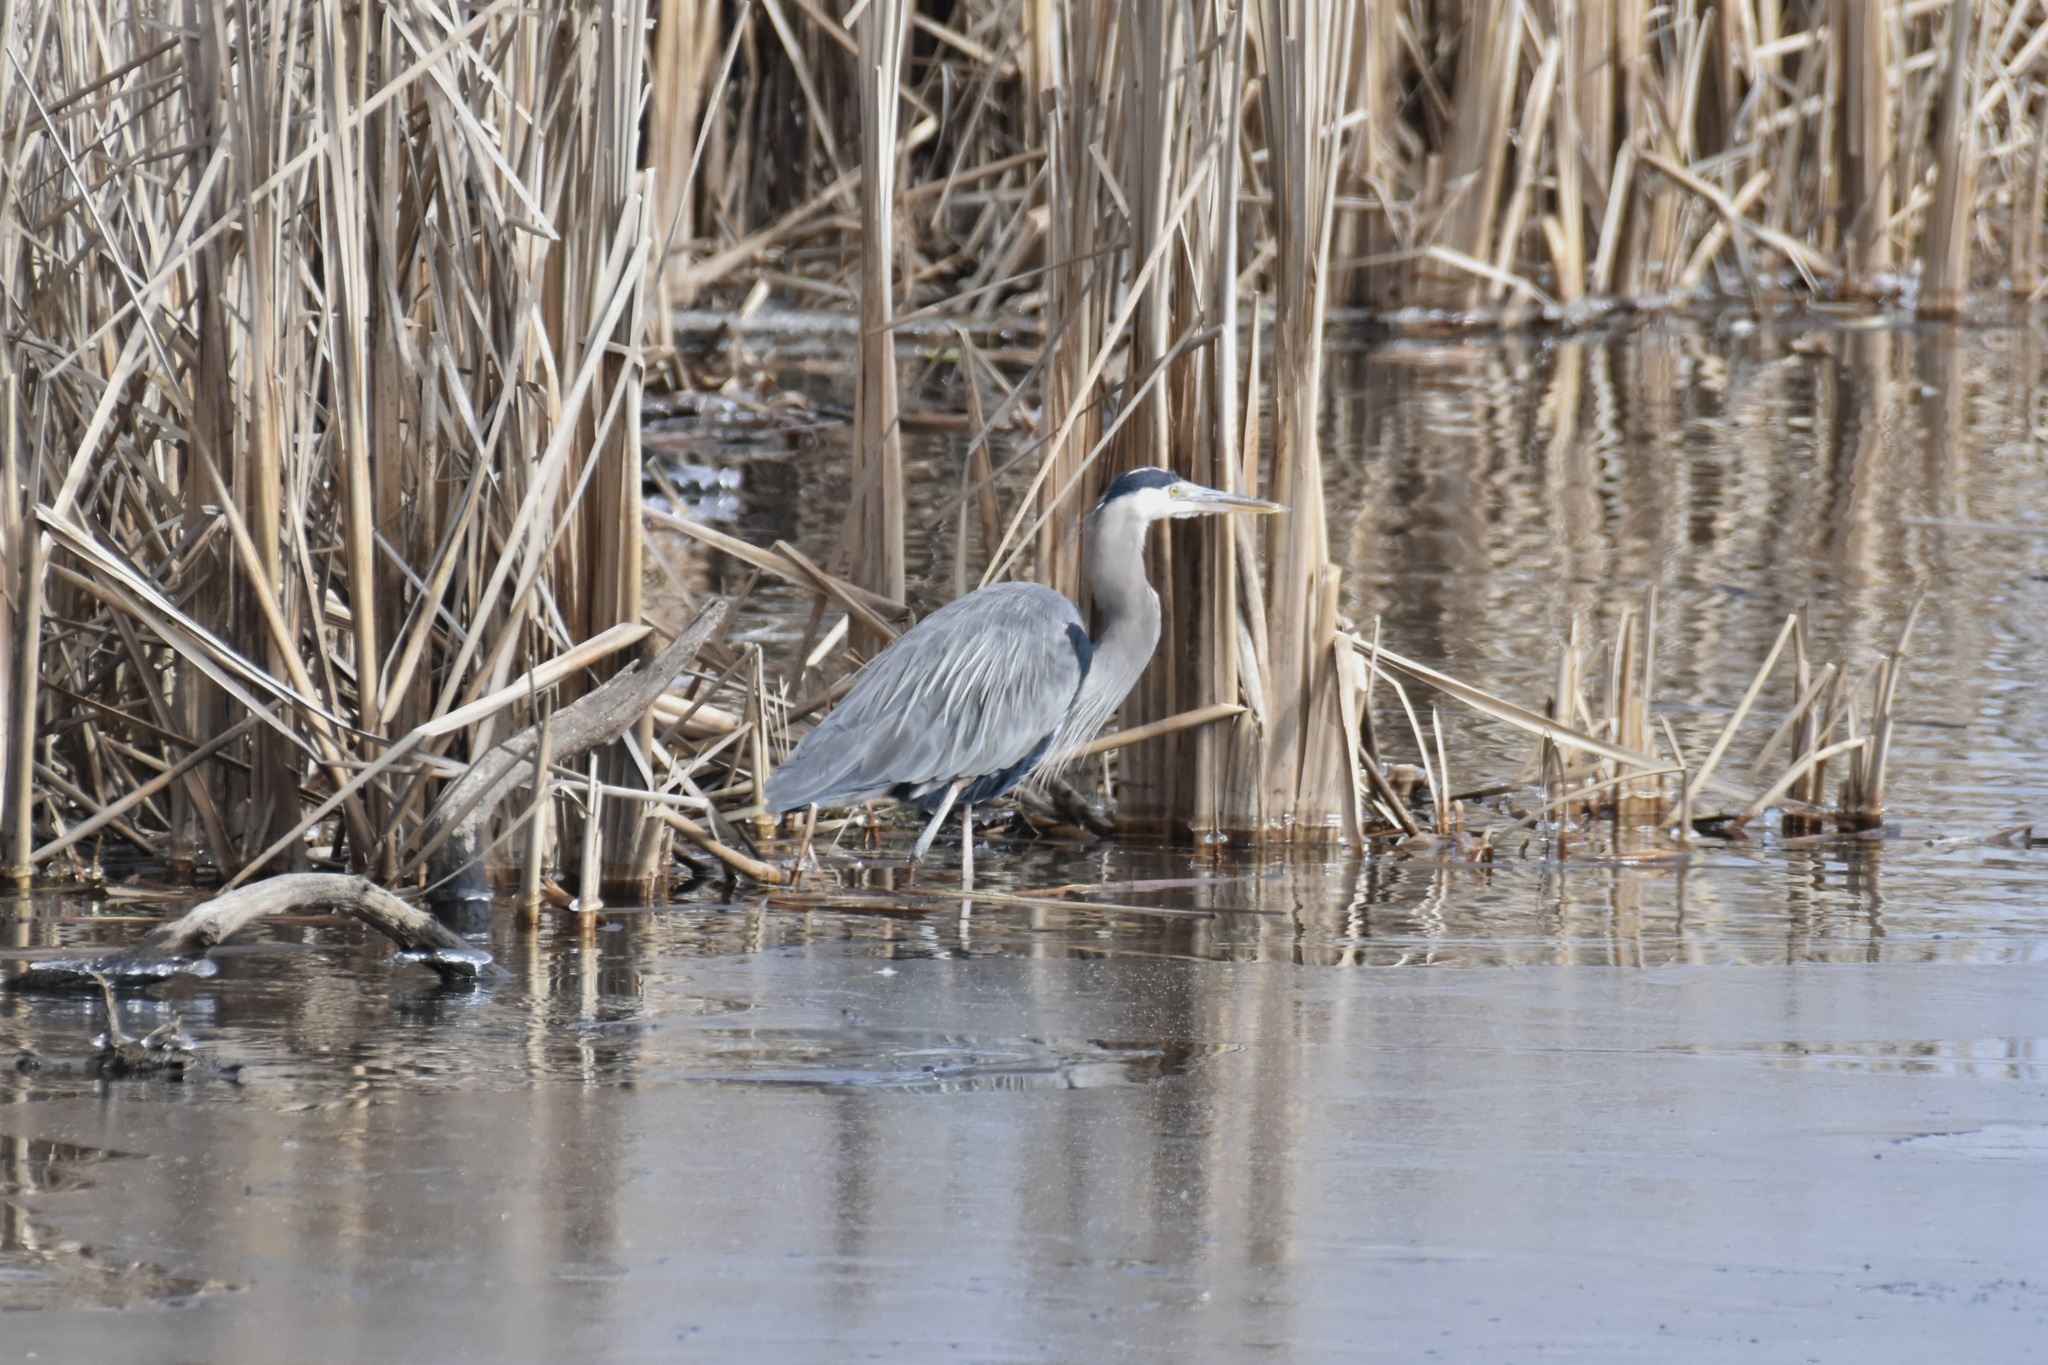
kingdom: Animalia
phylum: Chordata
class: Aves
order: Pelecaniformes
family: Ardeidae
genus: Ardea
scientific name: Ardea herodias
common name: Great blue heron
